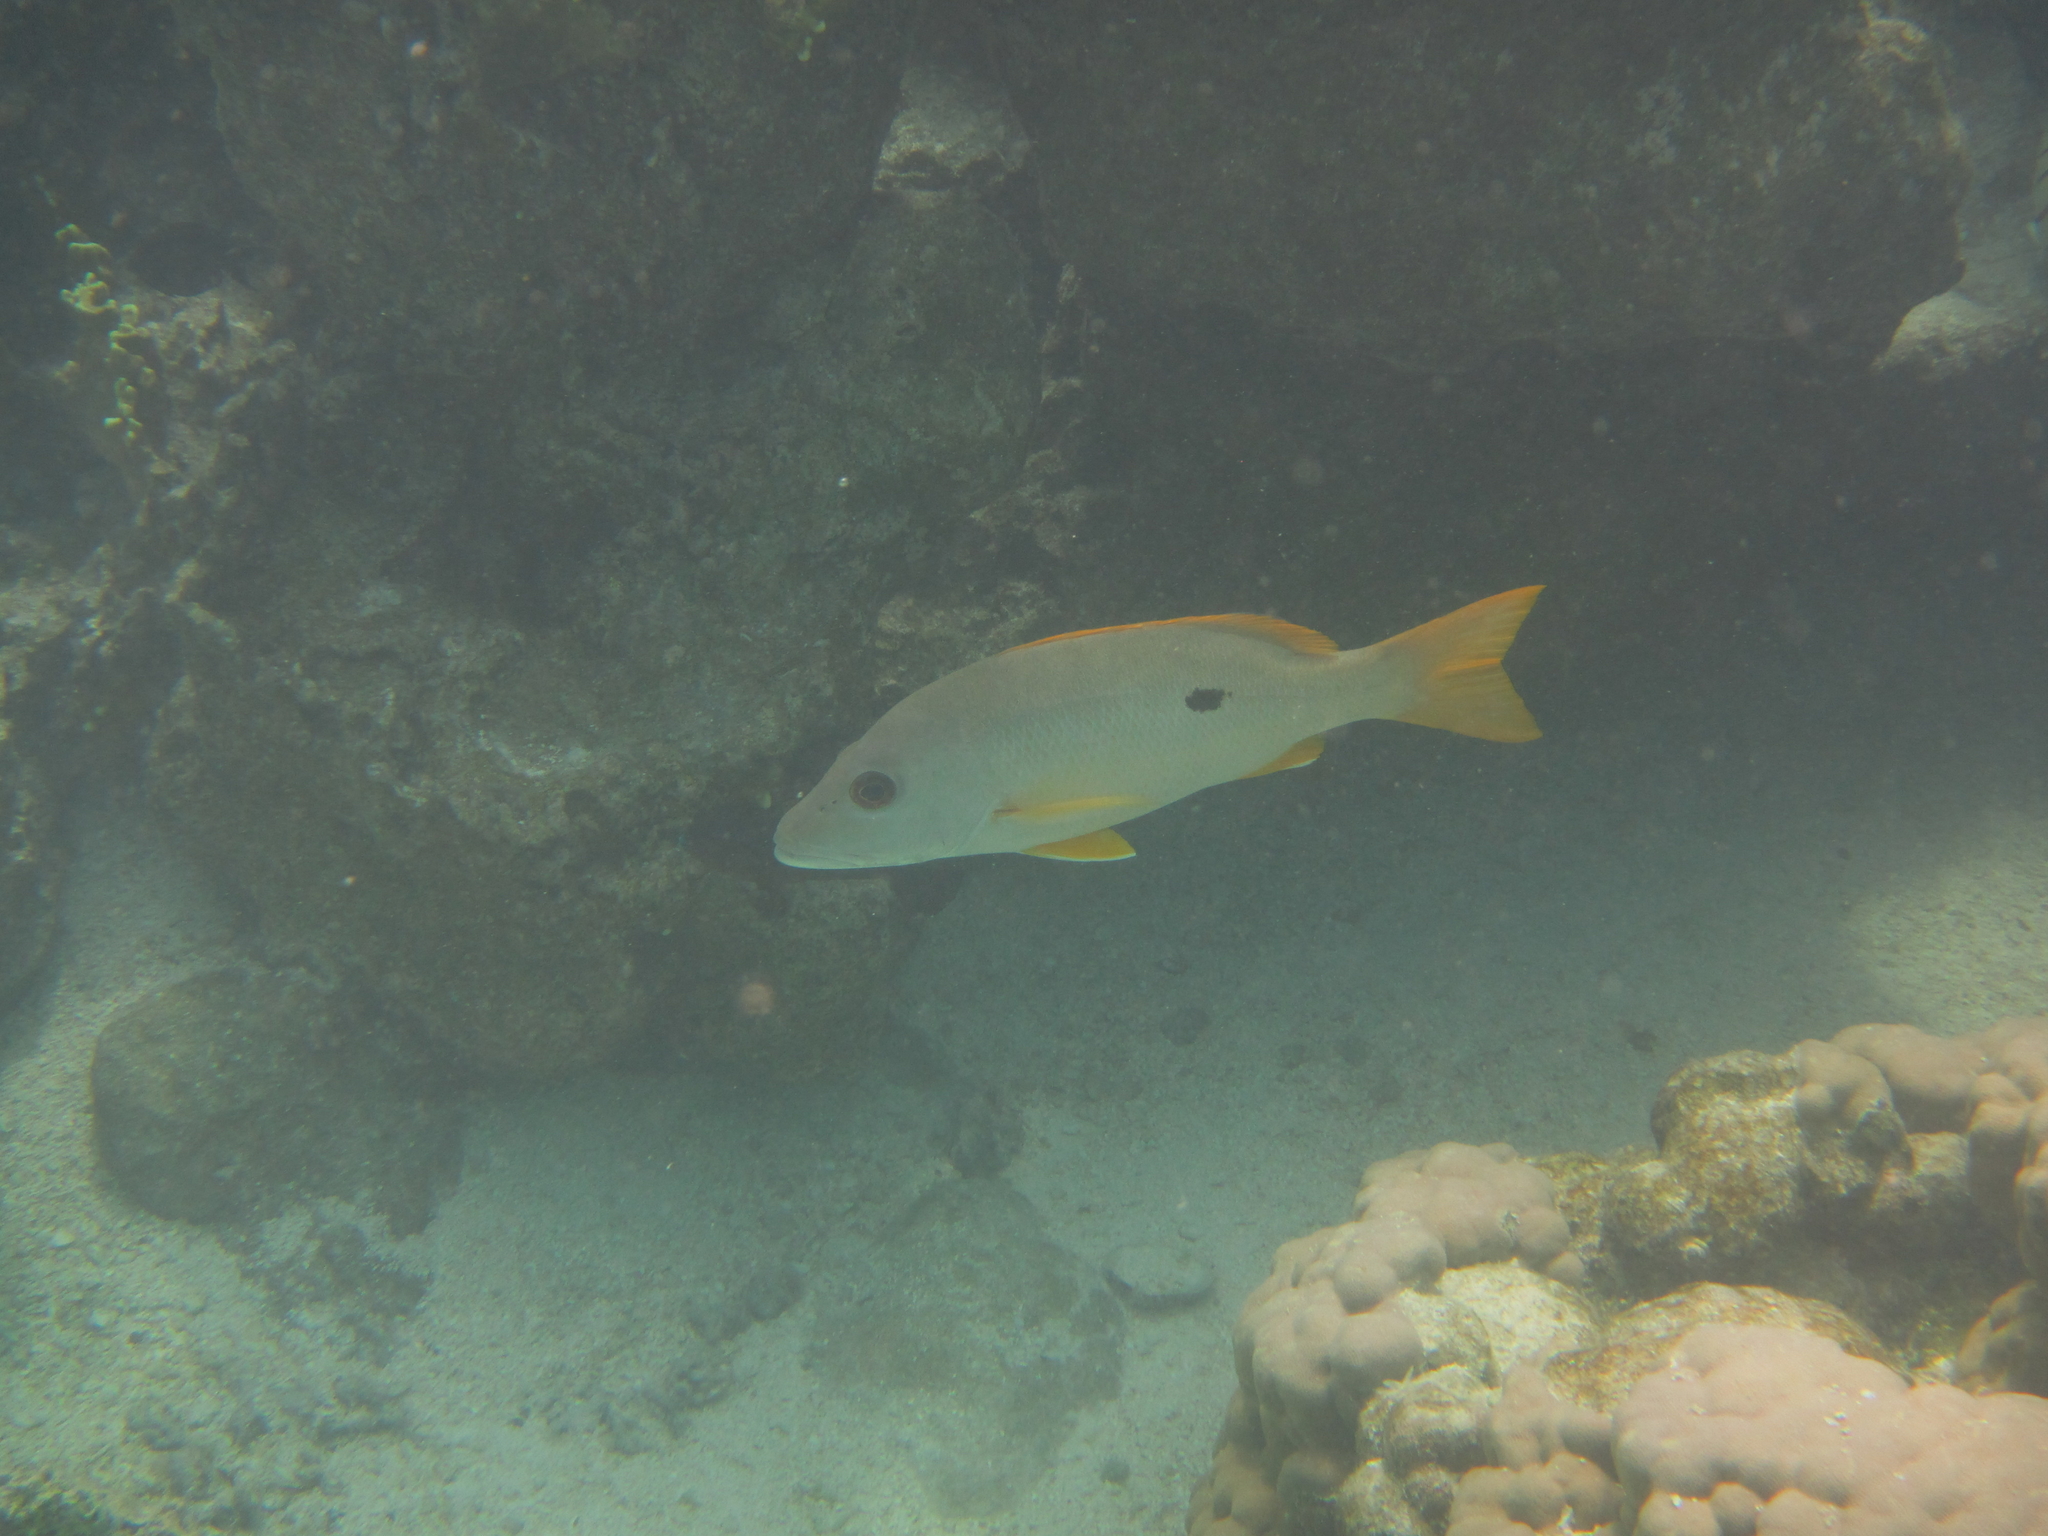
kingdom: Animalia
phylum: Chordata
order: Perciformes
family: Lutjanidae
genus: Lutjanus
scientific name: Lutjanus monostigma
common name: Onespot snapper
